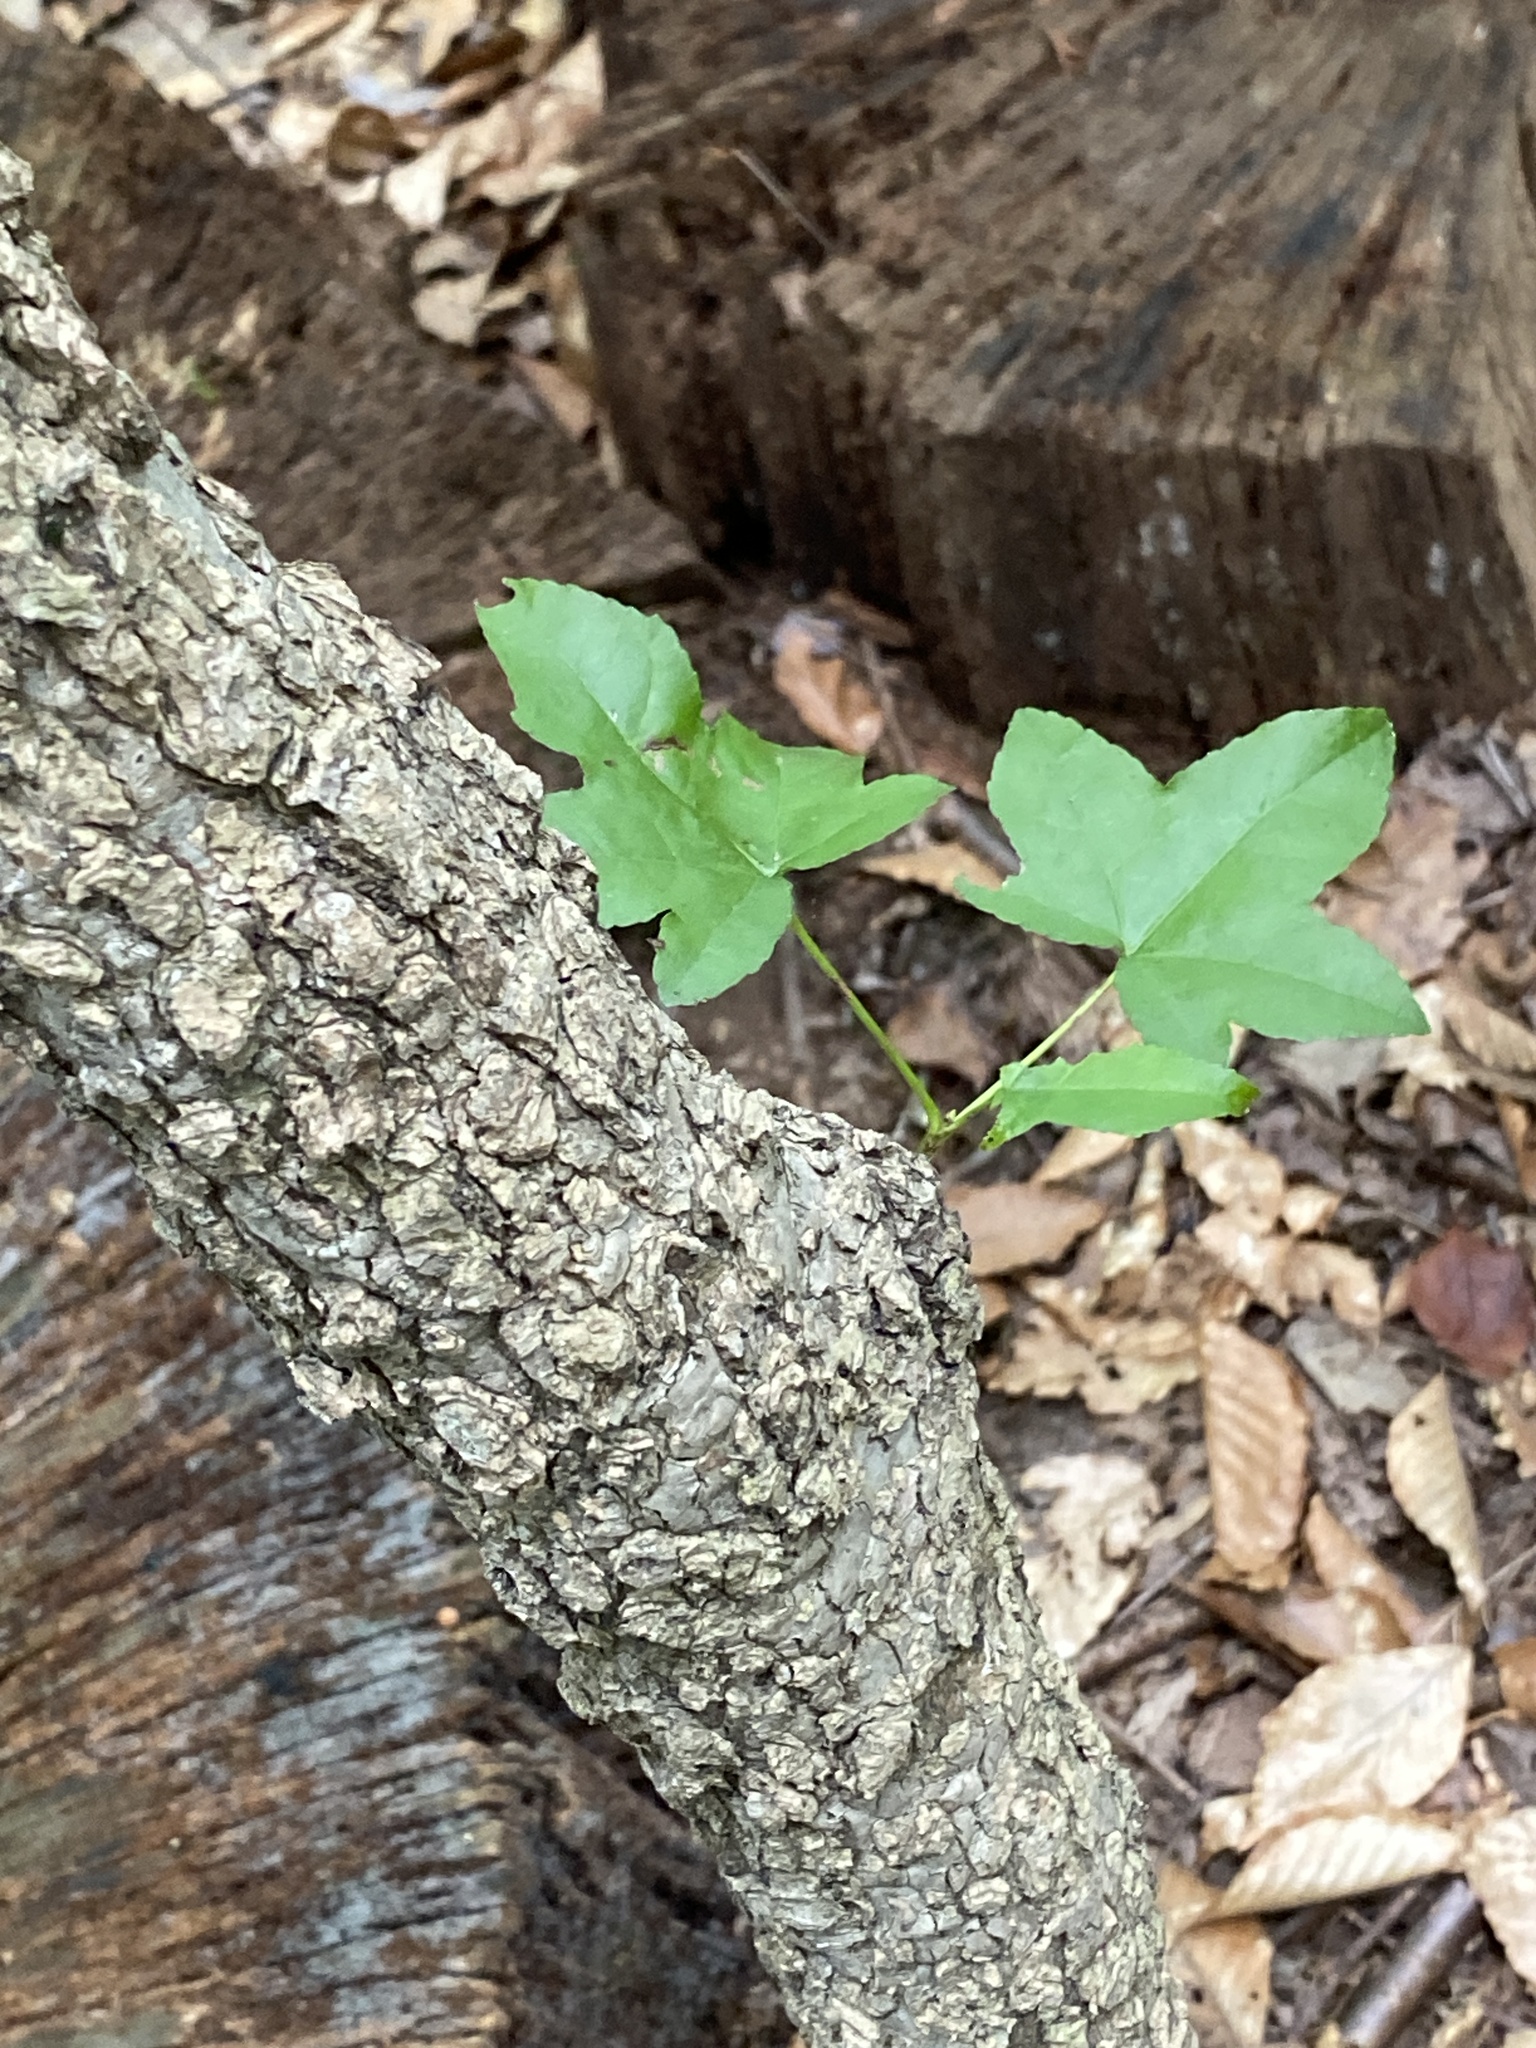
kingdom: Plantae
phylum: Tracheophyta
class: Magnoliopsida
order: Saxifragales
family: Altingiaceae
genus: Liquidambar
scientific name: Liquidambar styraciflua
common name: Sweet gum
